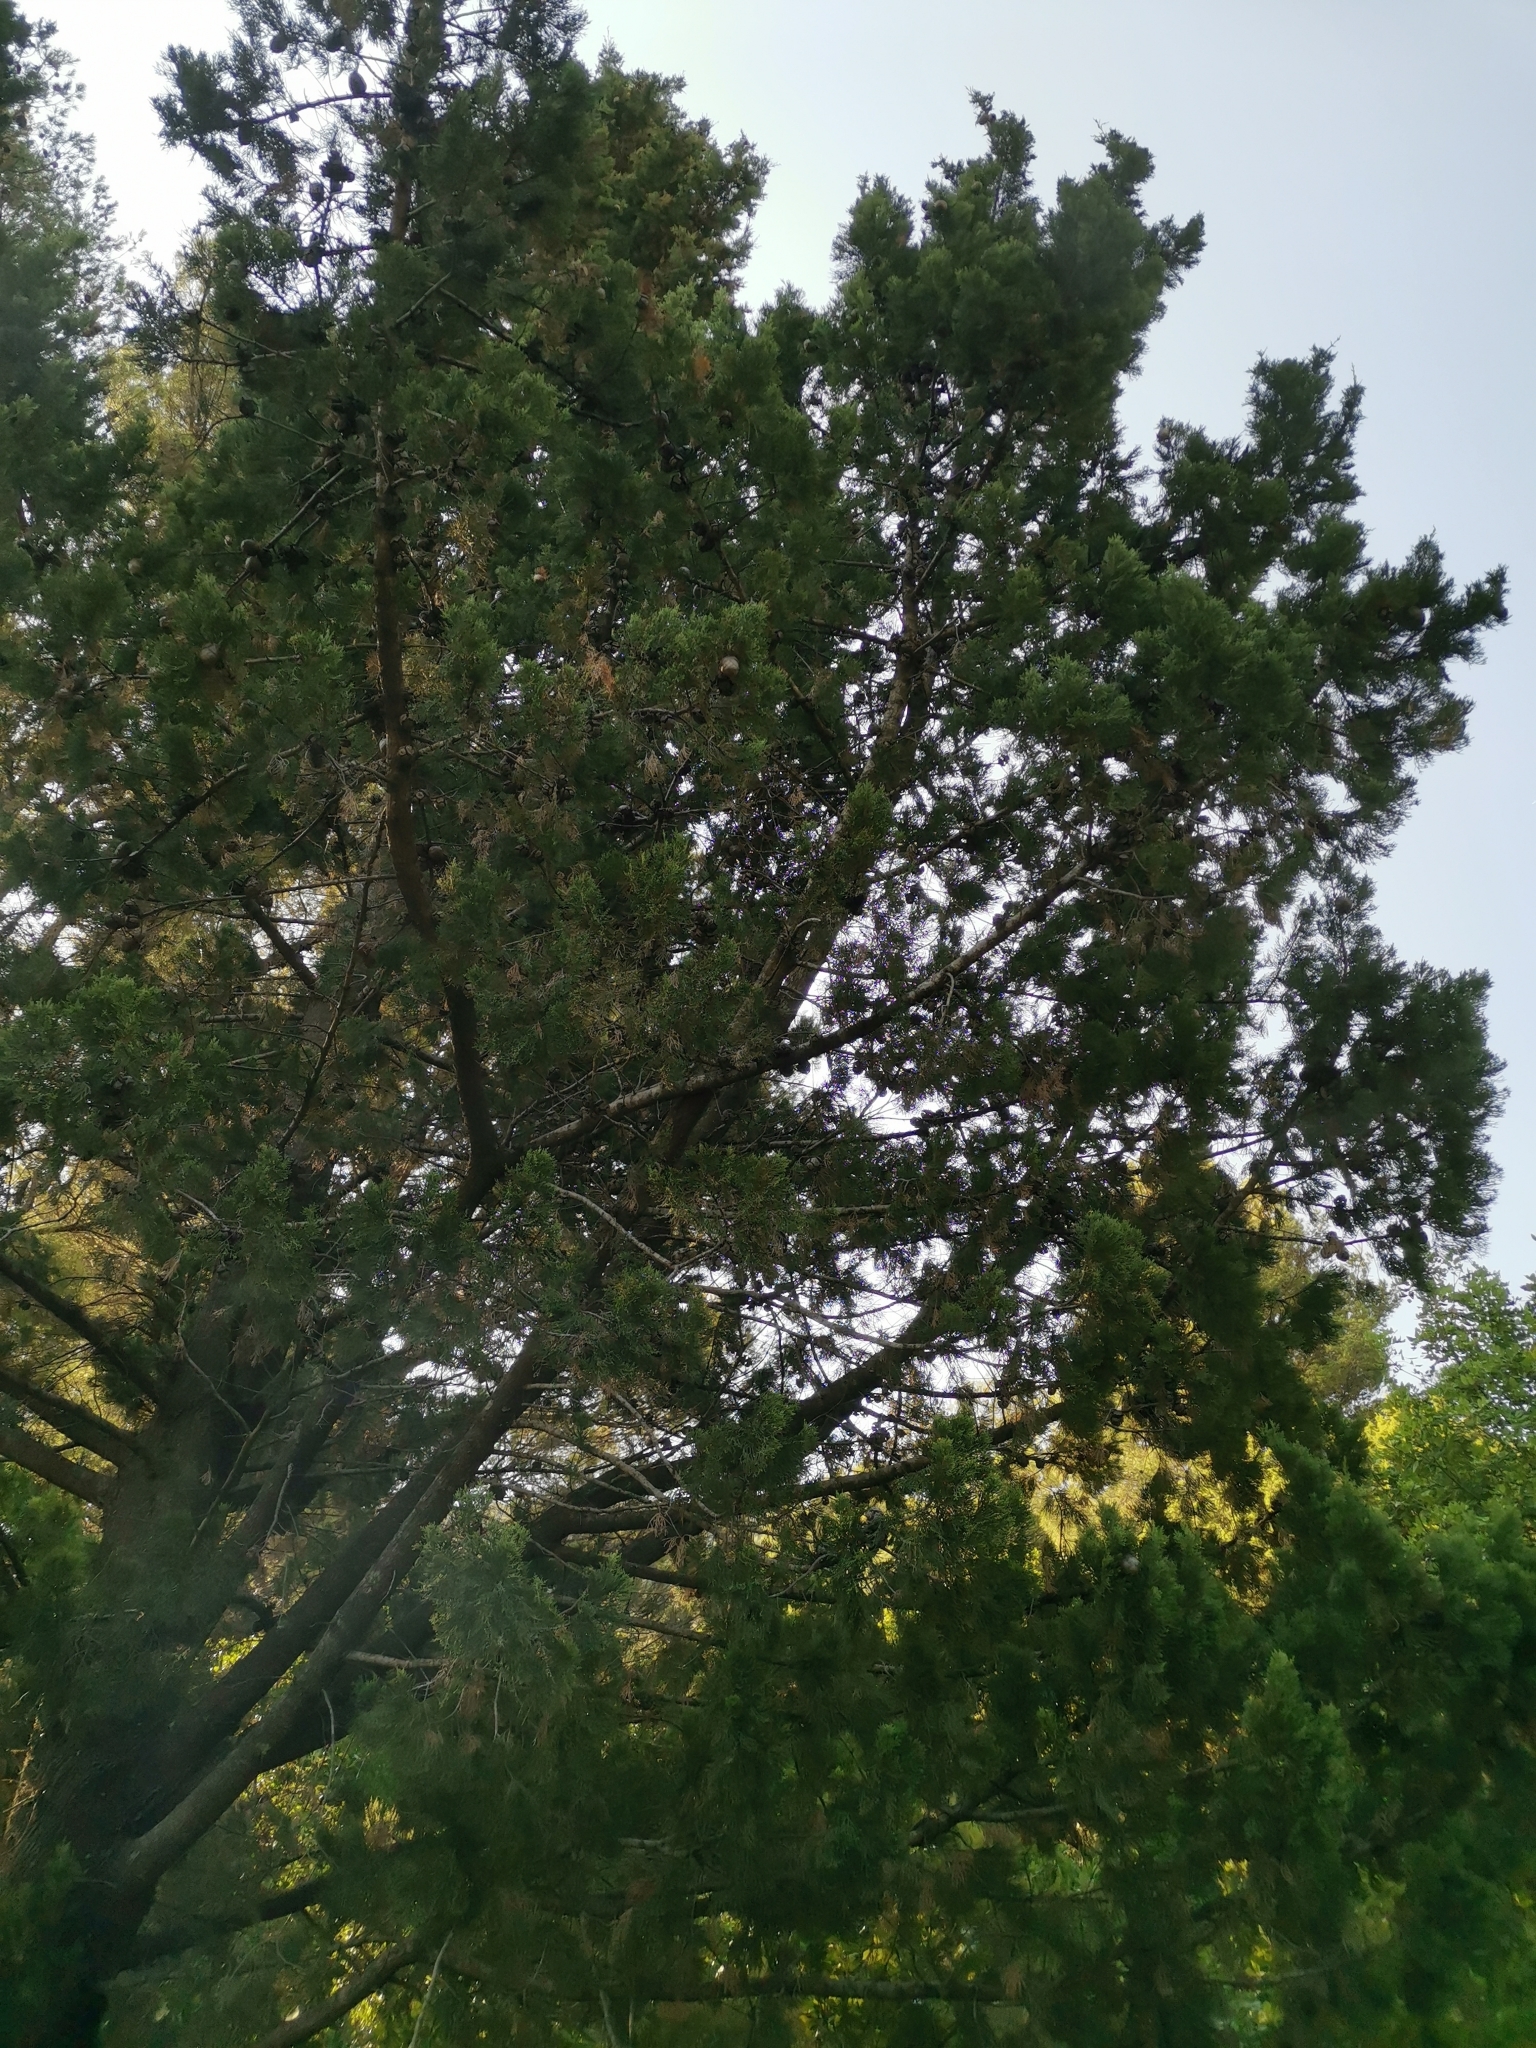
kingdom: Plantae
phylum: Tracheophyta
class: Pinopsida
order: Pinales
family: Cupressaceae
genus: Cupressus
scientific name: Cupressus sempervirens
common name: Italian cypress
